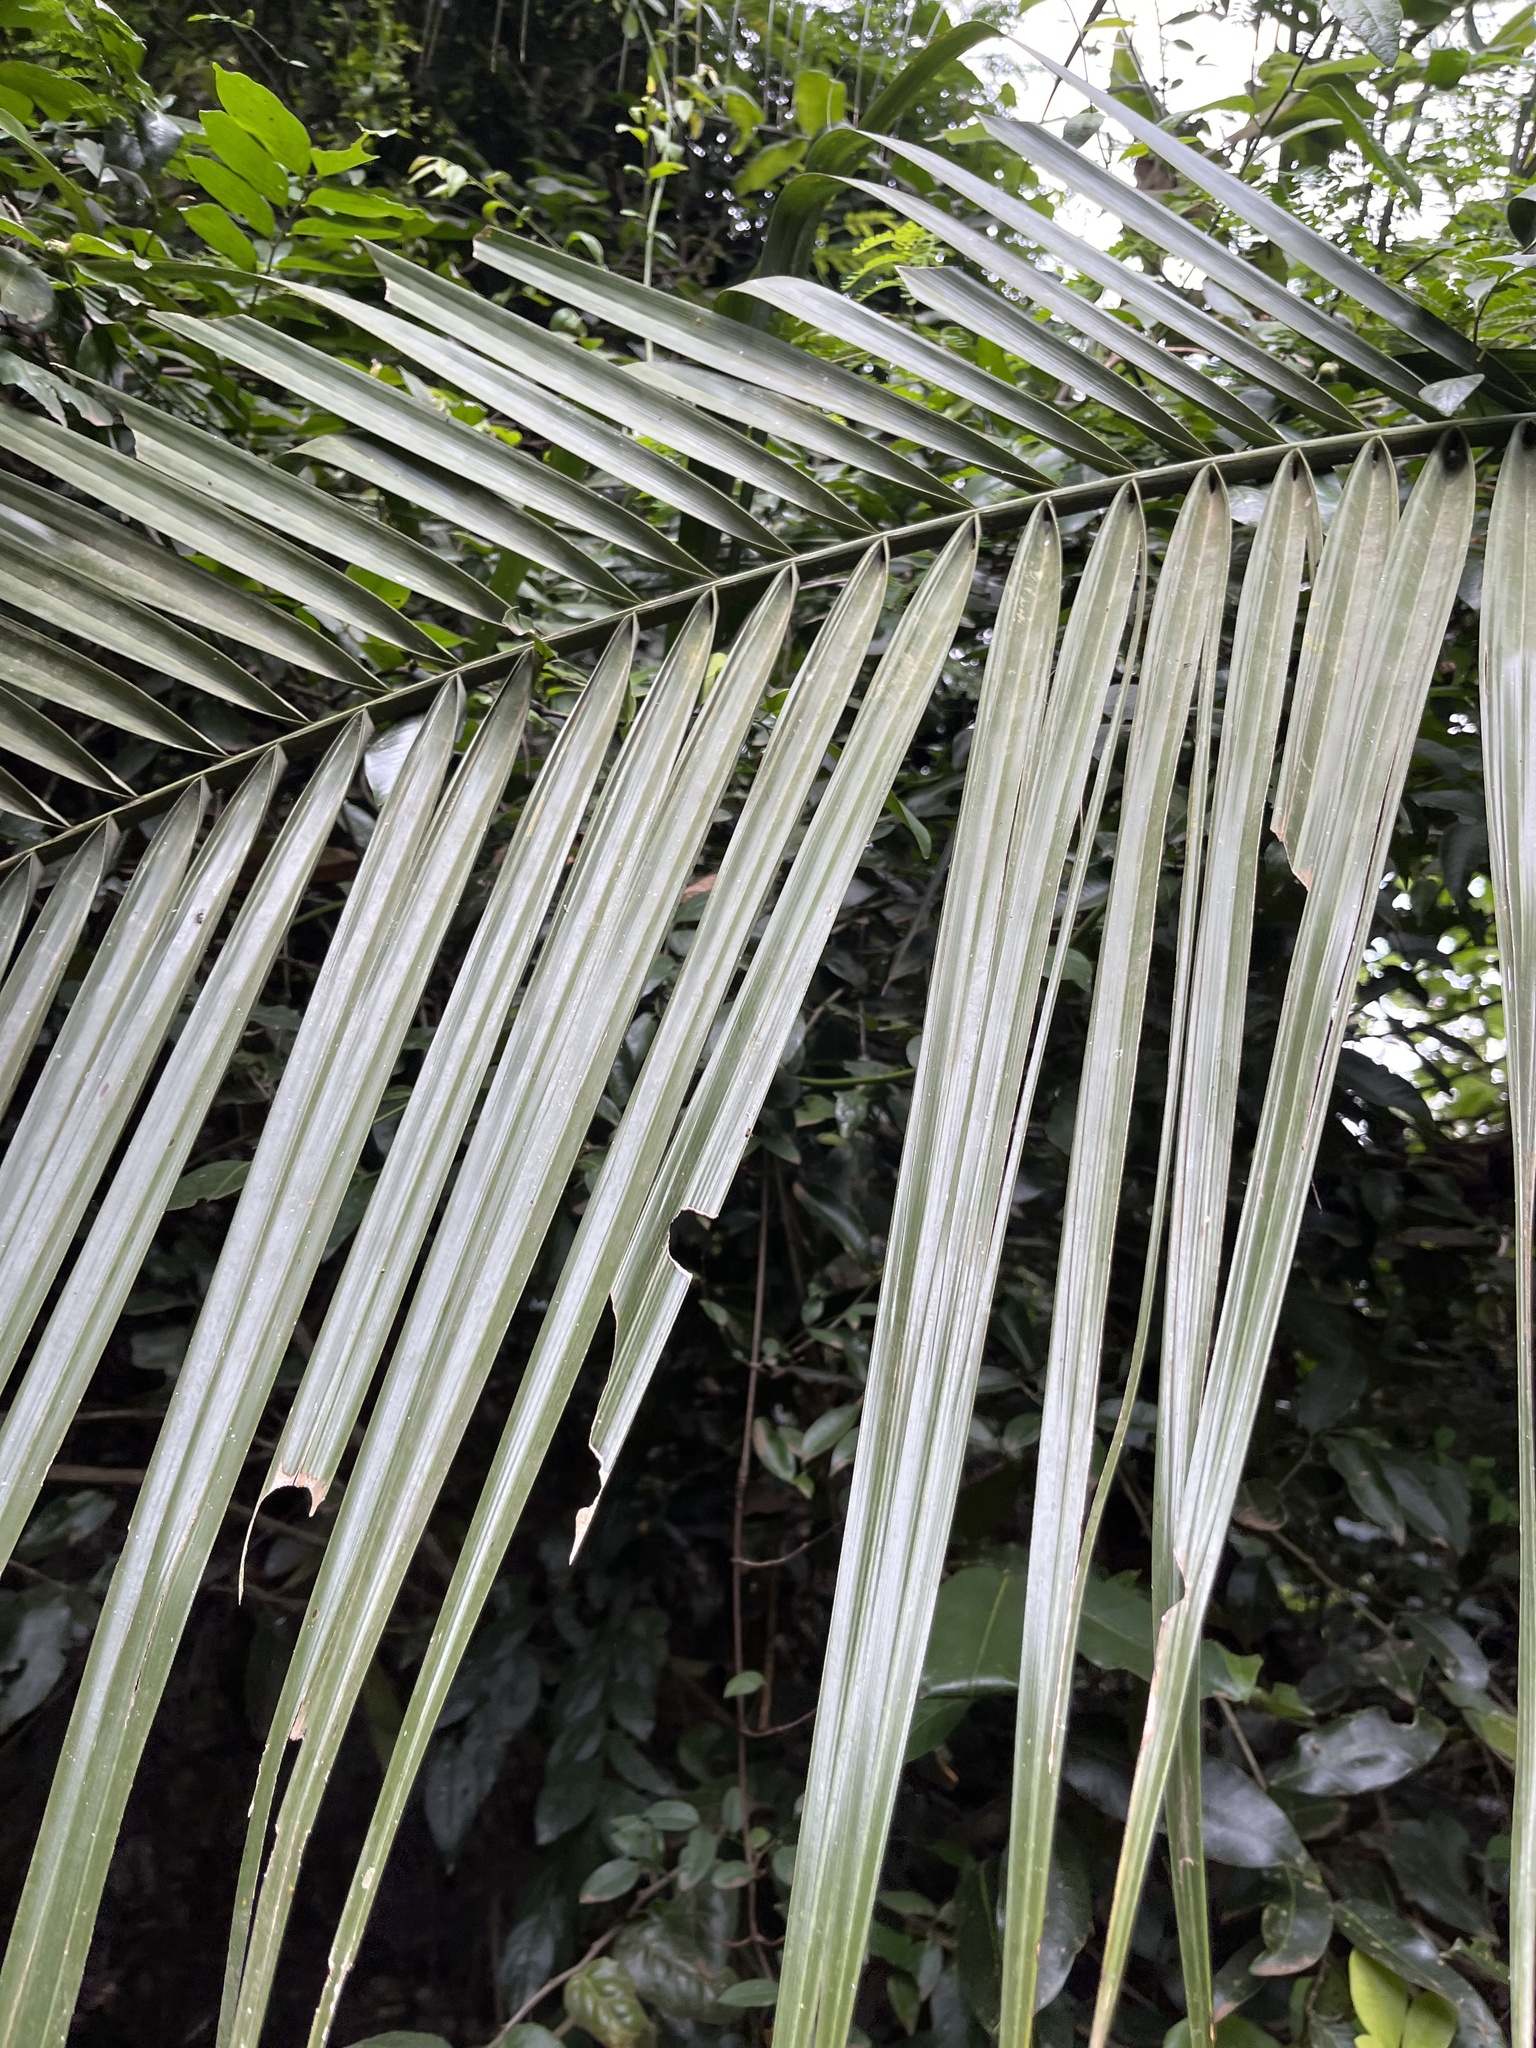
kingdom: Plantae
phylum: Tracheophyta
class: Liliopsida
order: Arecales
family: Arecaceae
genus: Phoenix
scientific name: Phoenix reclinata
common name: Senegal date palm
